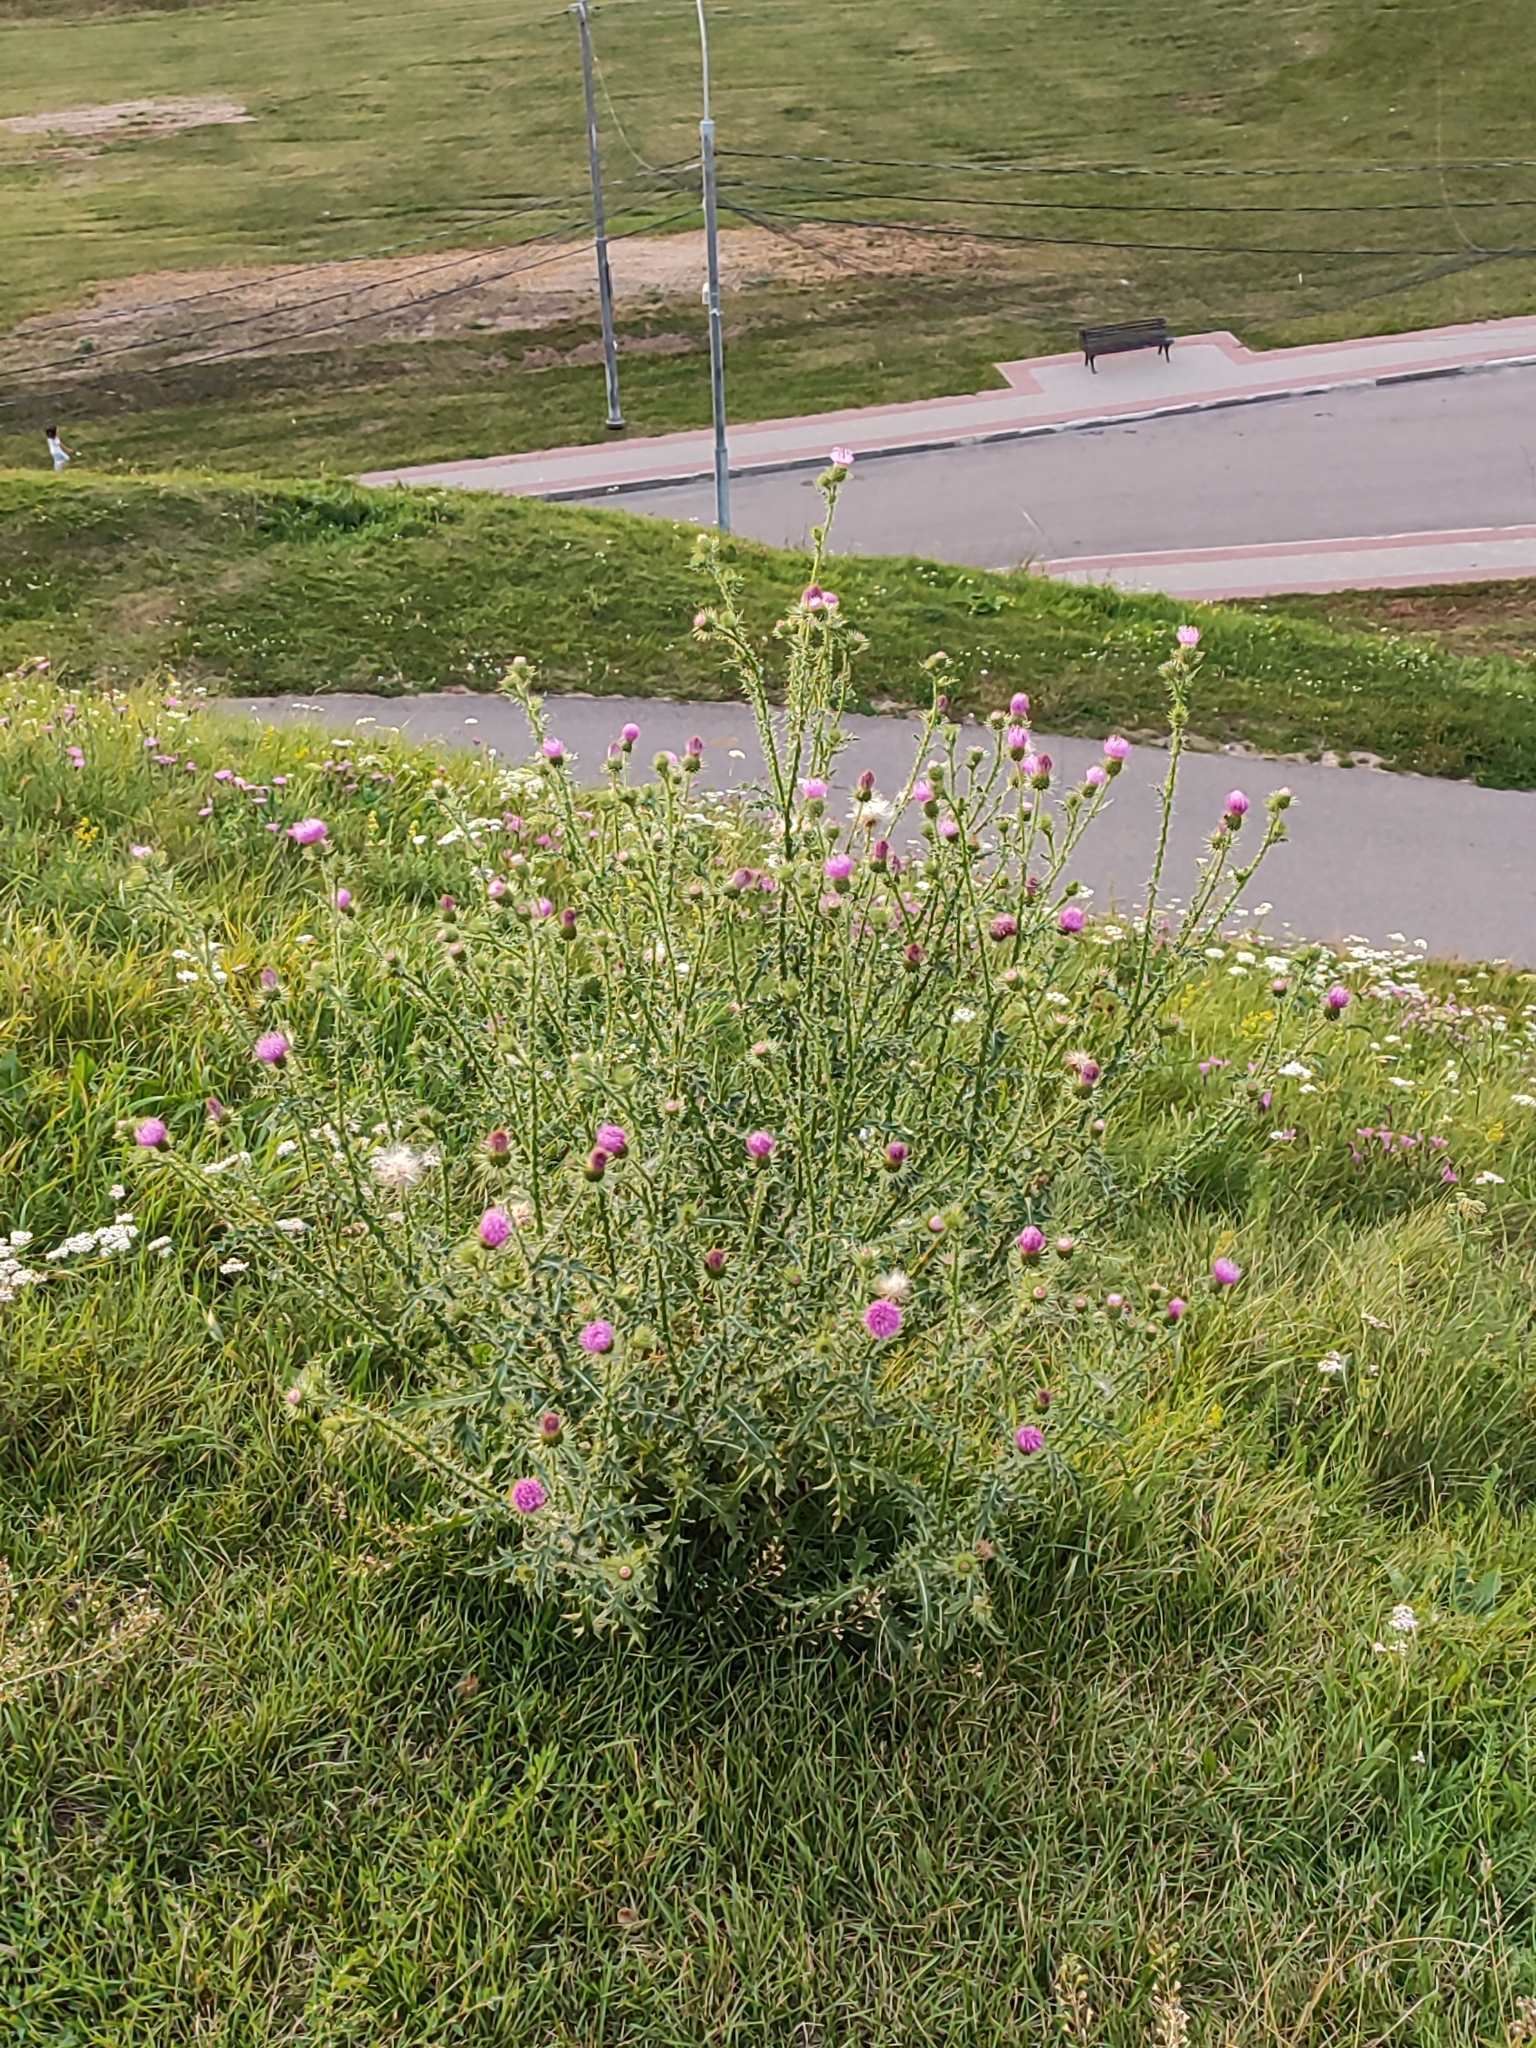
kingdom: Plantae
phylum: Tracheophyta
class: Magnoliopsida
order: Asterales
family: Asteraceae
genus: Carduus
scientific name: Carduus acanthoides
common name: Plumeless thistle
